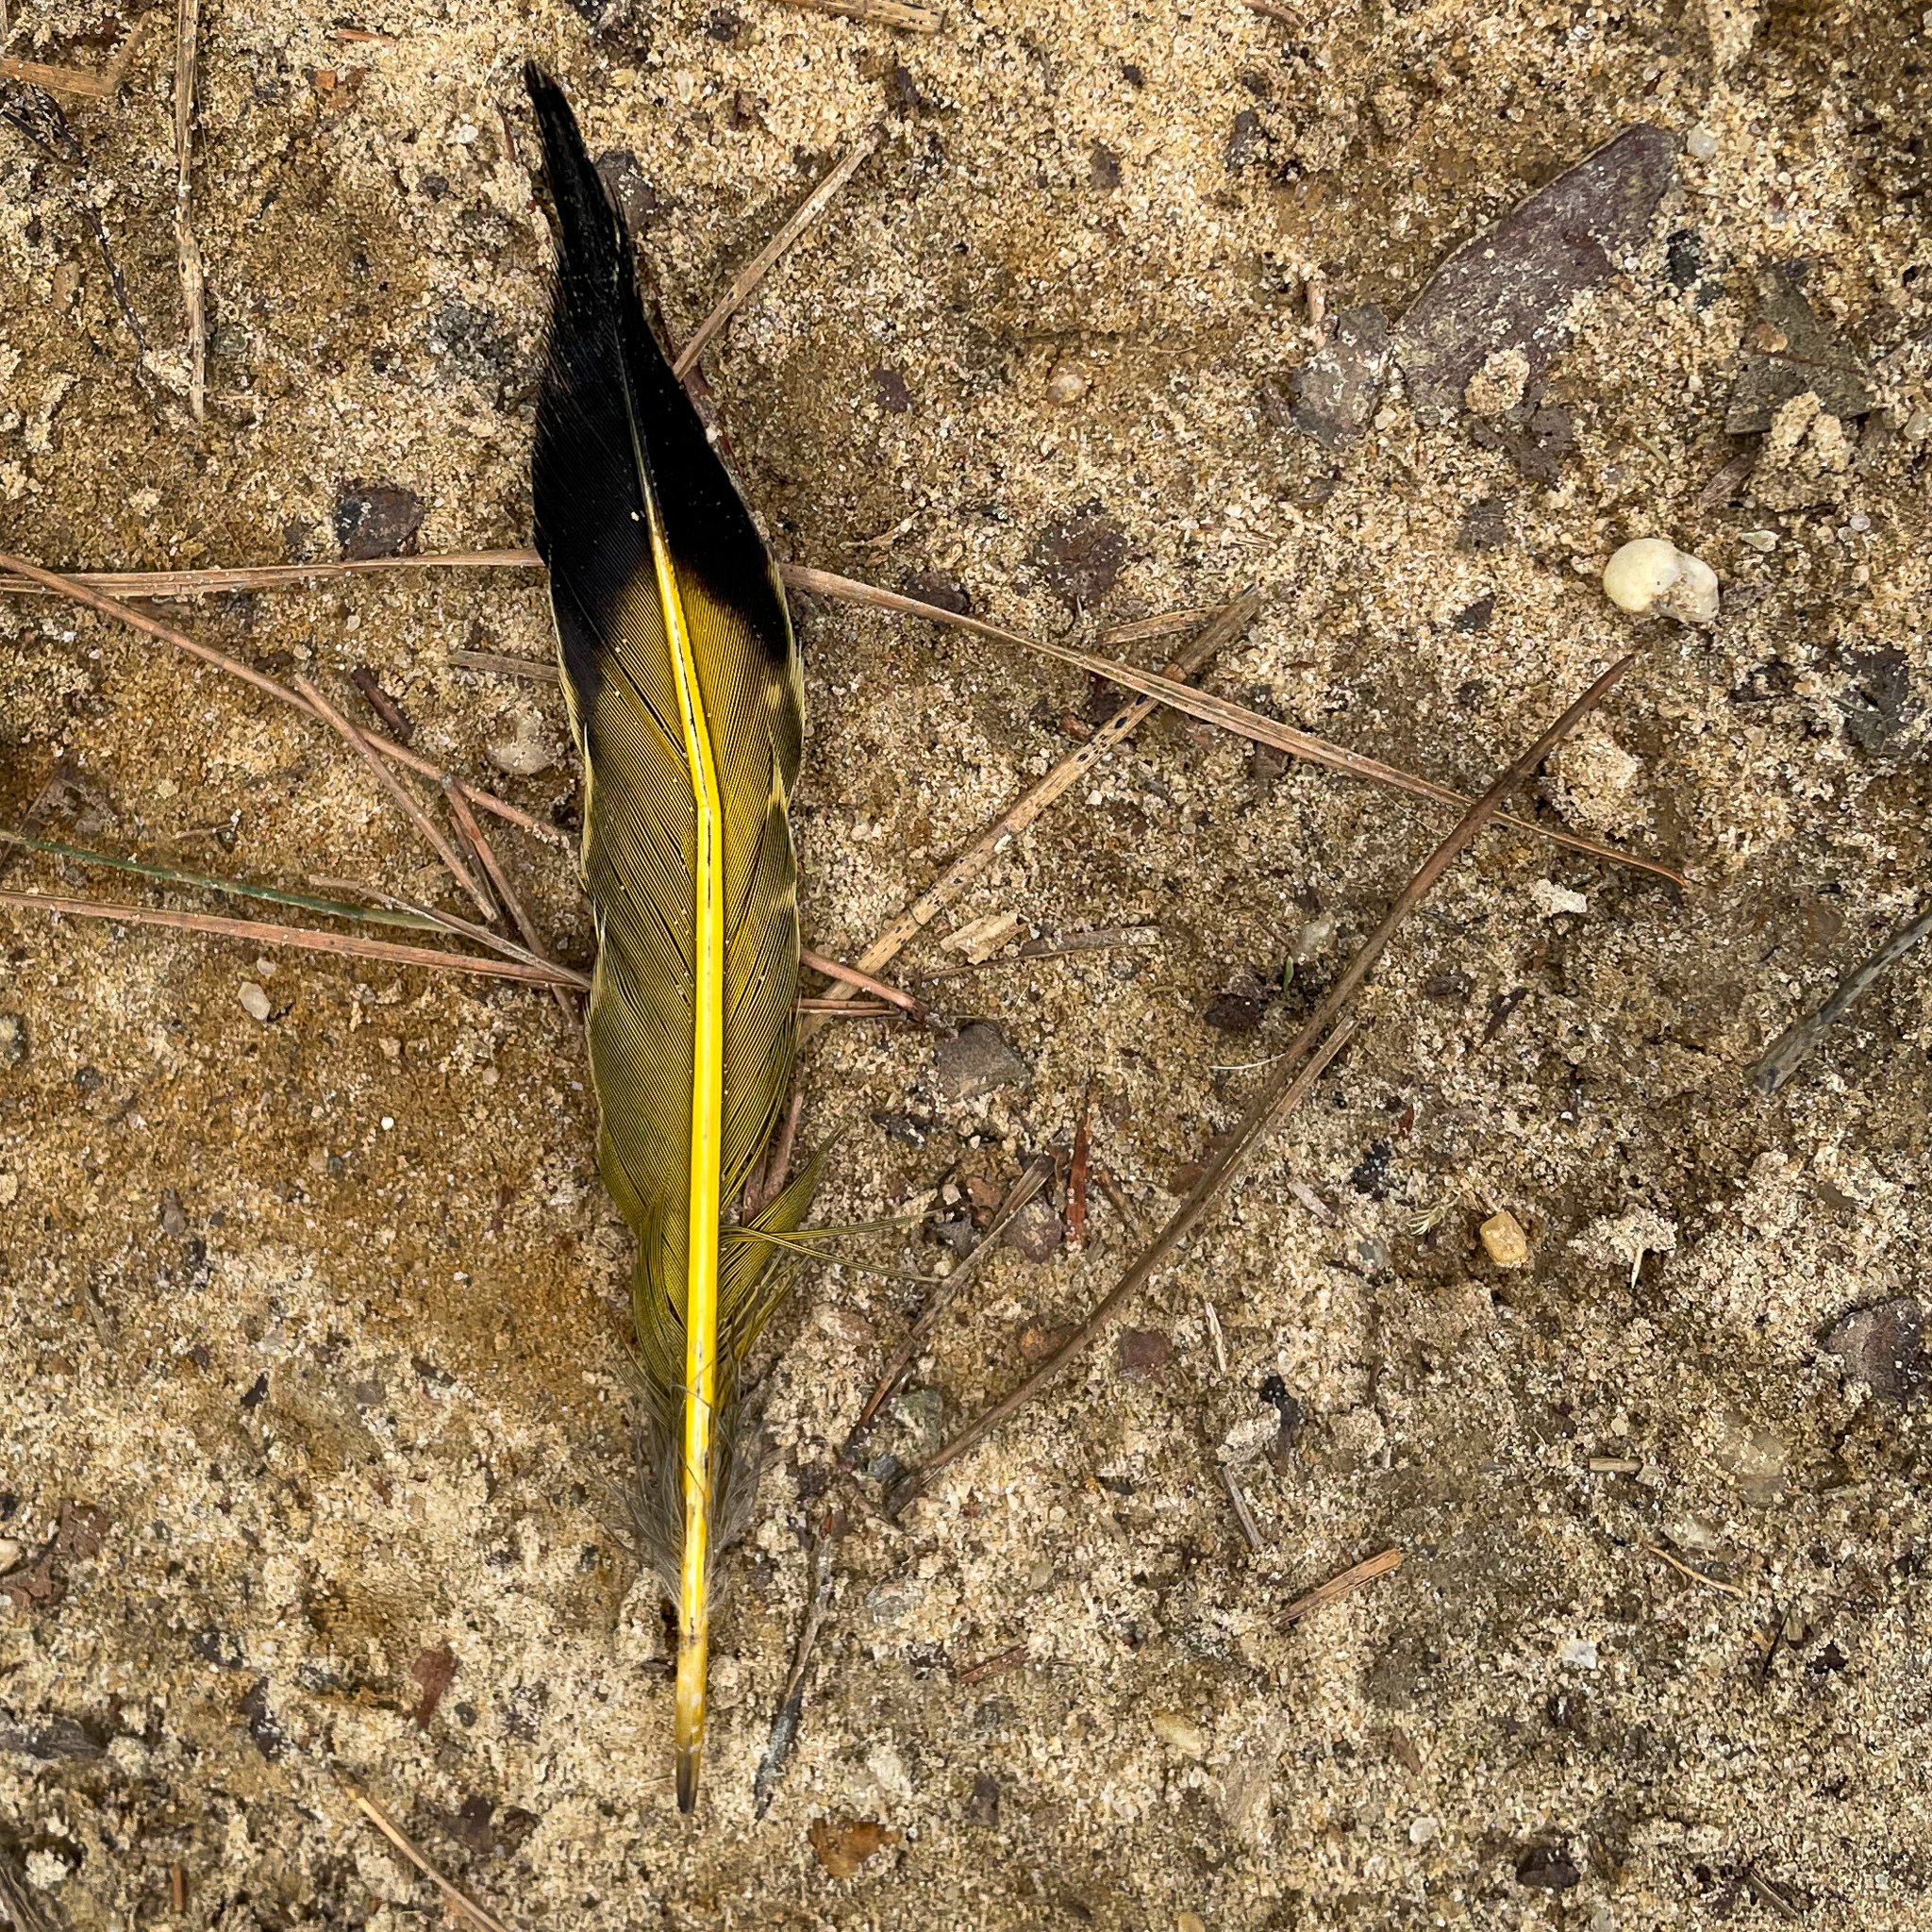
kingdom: Animalia
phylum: Chordata
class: Aves
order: Piciformes
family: Picidae
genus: Colaptes
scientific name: Colaptes auratus
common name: Northern flicker
